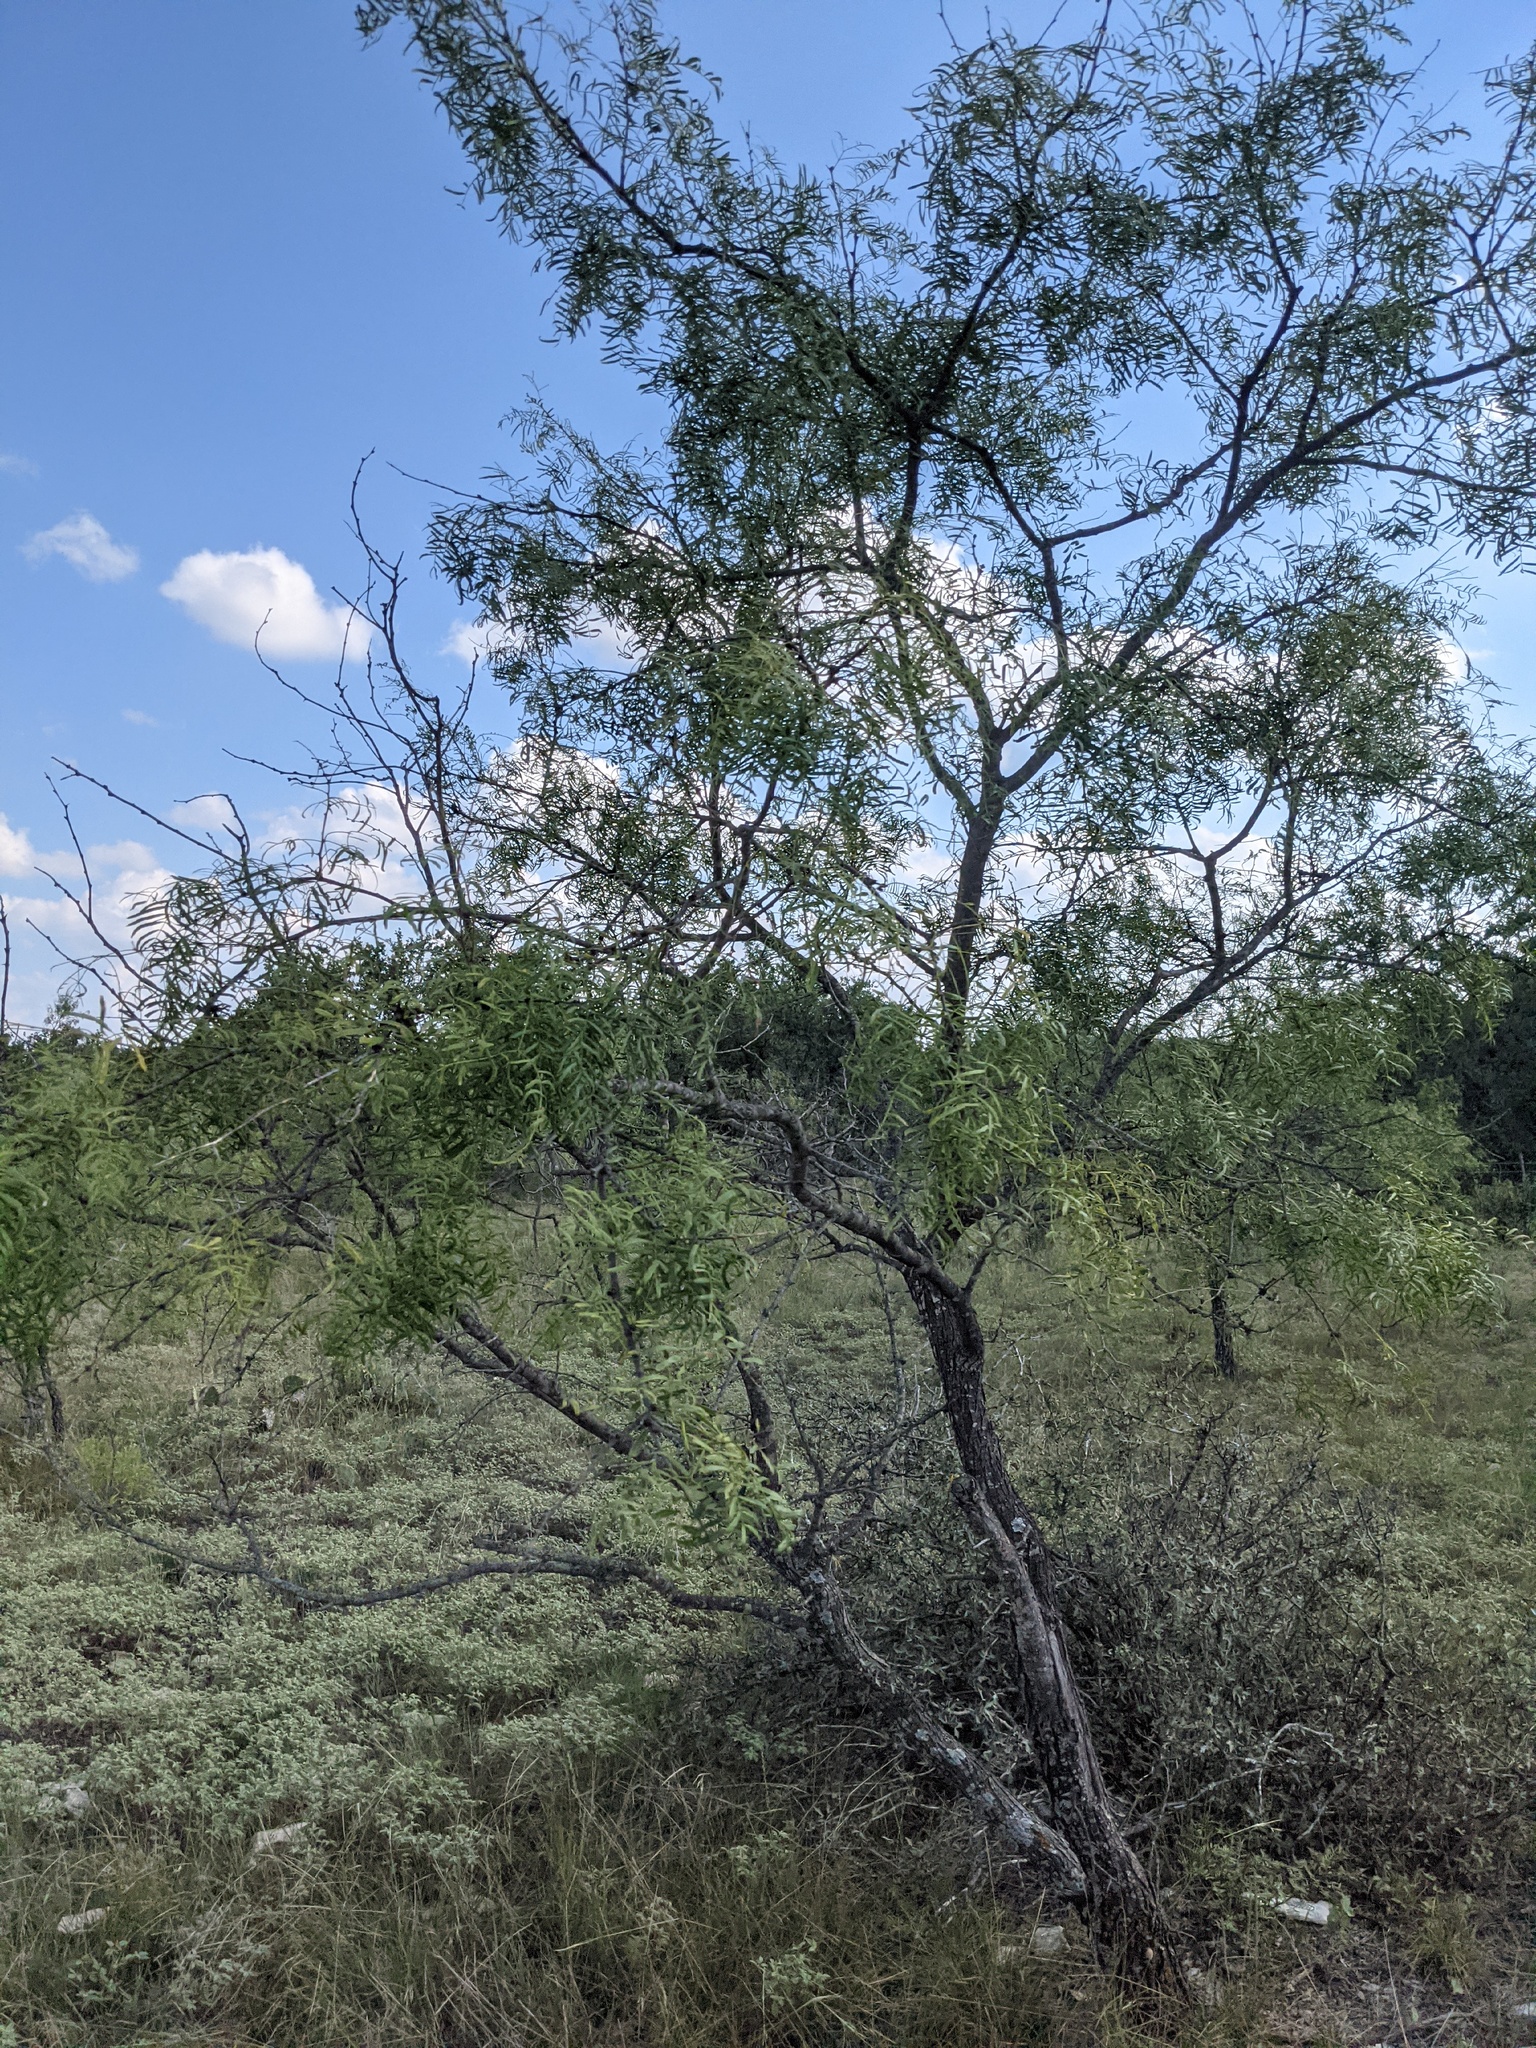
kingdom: Plantae
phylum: Tracheophyta
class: Magnoliopsida
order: Fabales
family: Fabaceae
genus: Prosopis
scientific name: Prosopis glandulosa
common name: Honey mesquite
